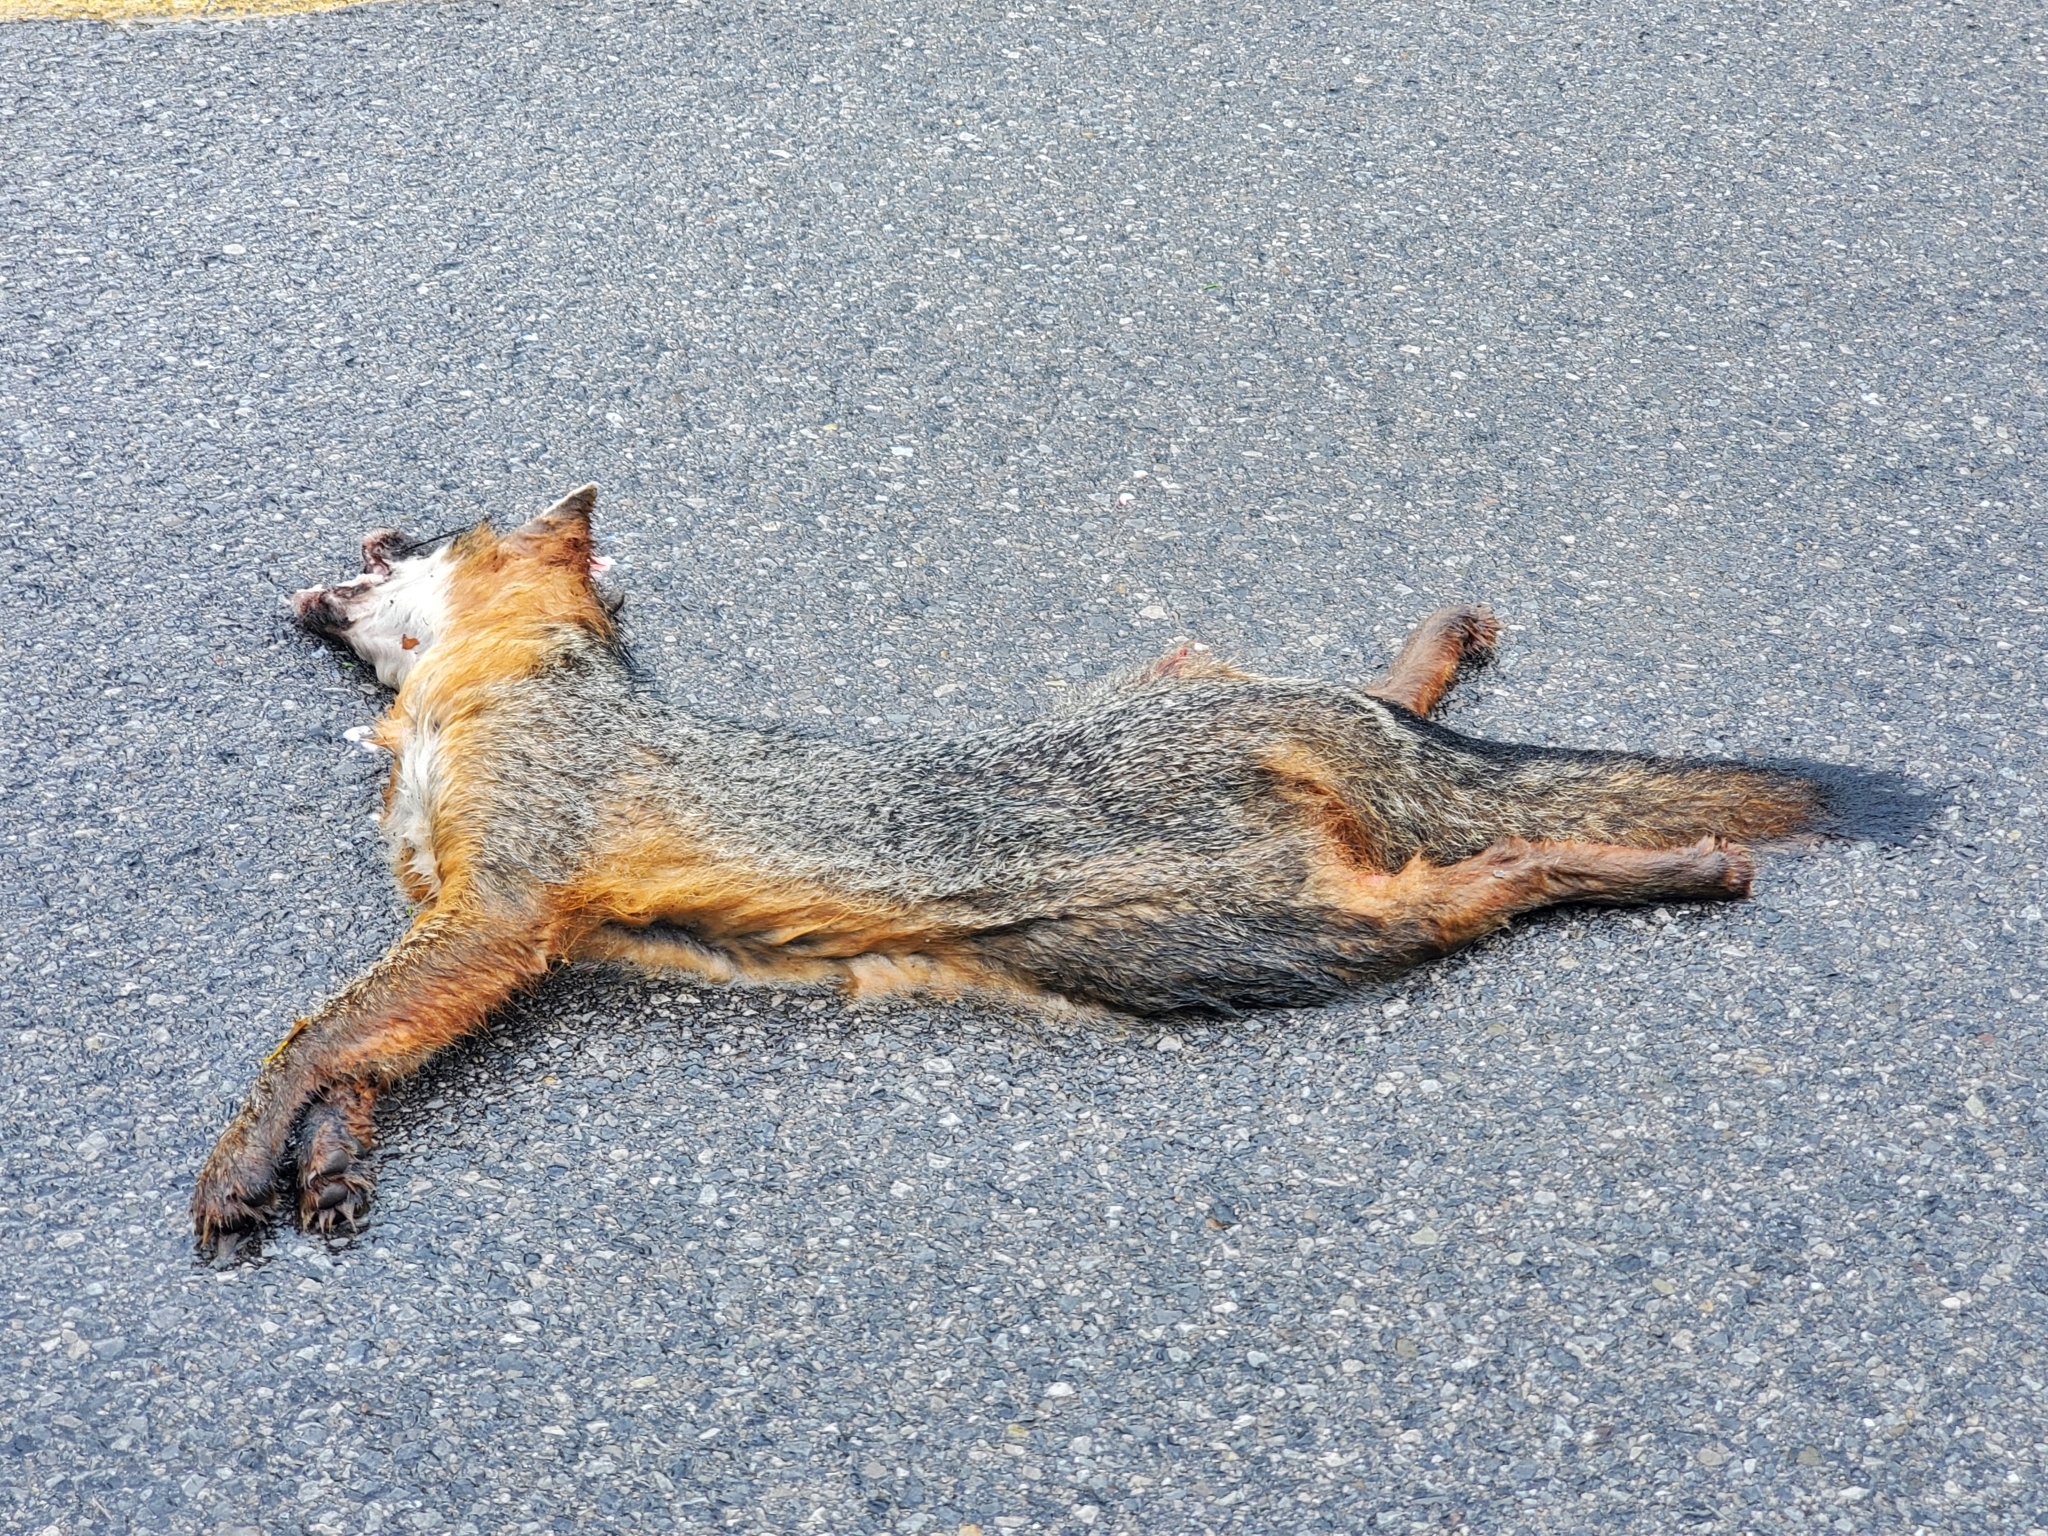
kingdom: Animalia
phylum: Chordata
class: Mammalia
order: Carnivora
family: Canidae
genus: Urocyon
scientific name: Urocyon cinereoargenteus
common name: Gray fox
